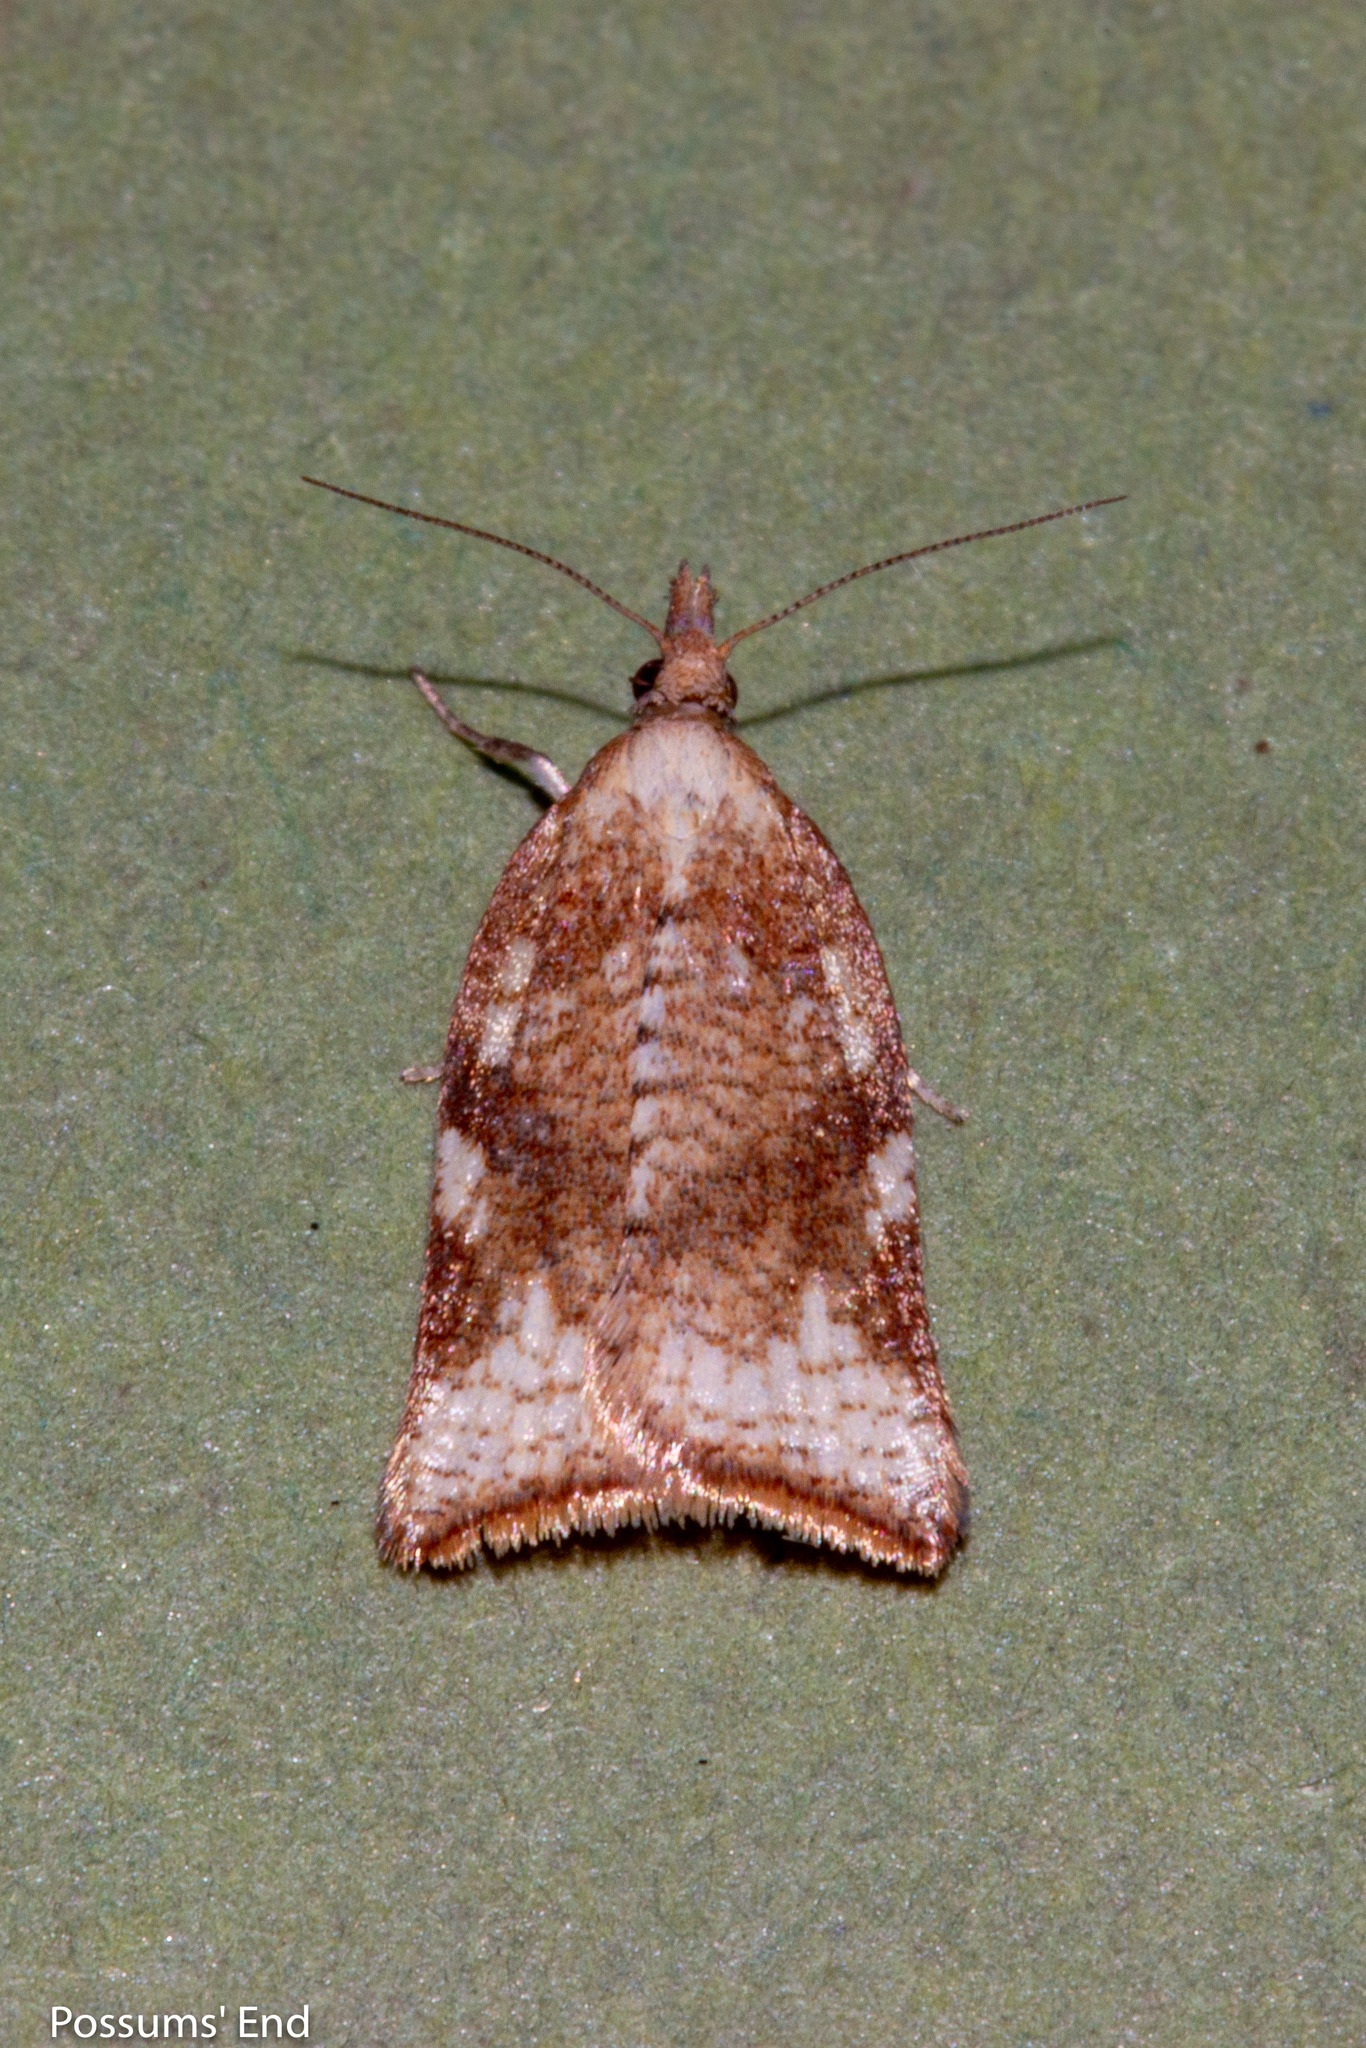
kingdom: Animalia
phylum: Arthropoda
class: Insecta
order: Lepidoptera
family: Tortricidae
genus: Catamacta
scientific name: Catamacta gavisana
